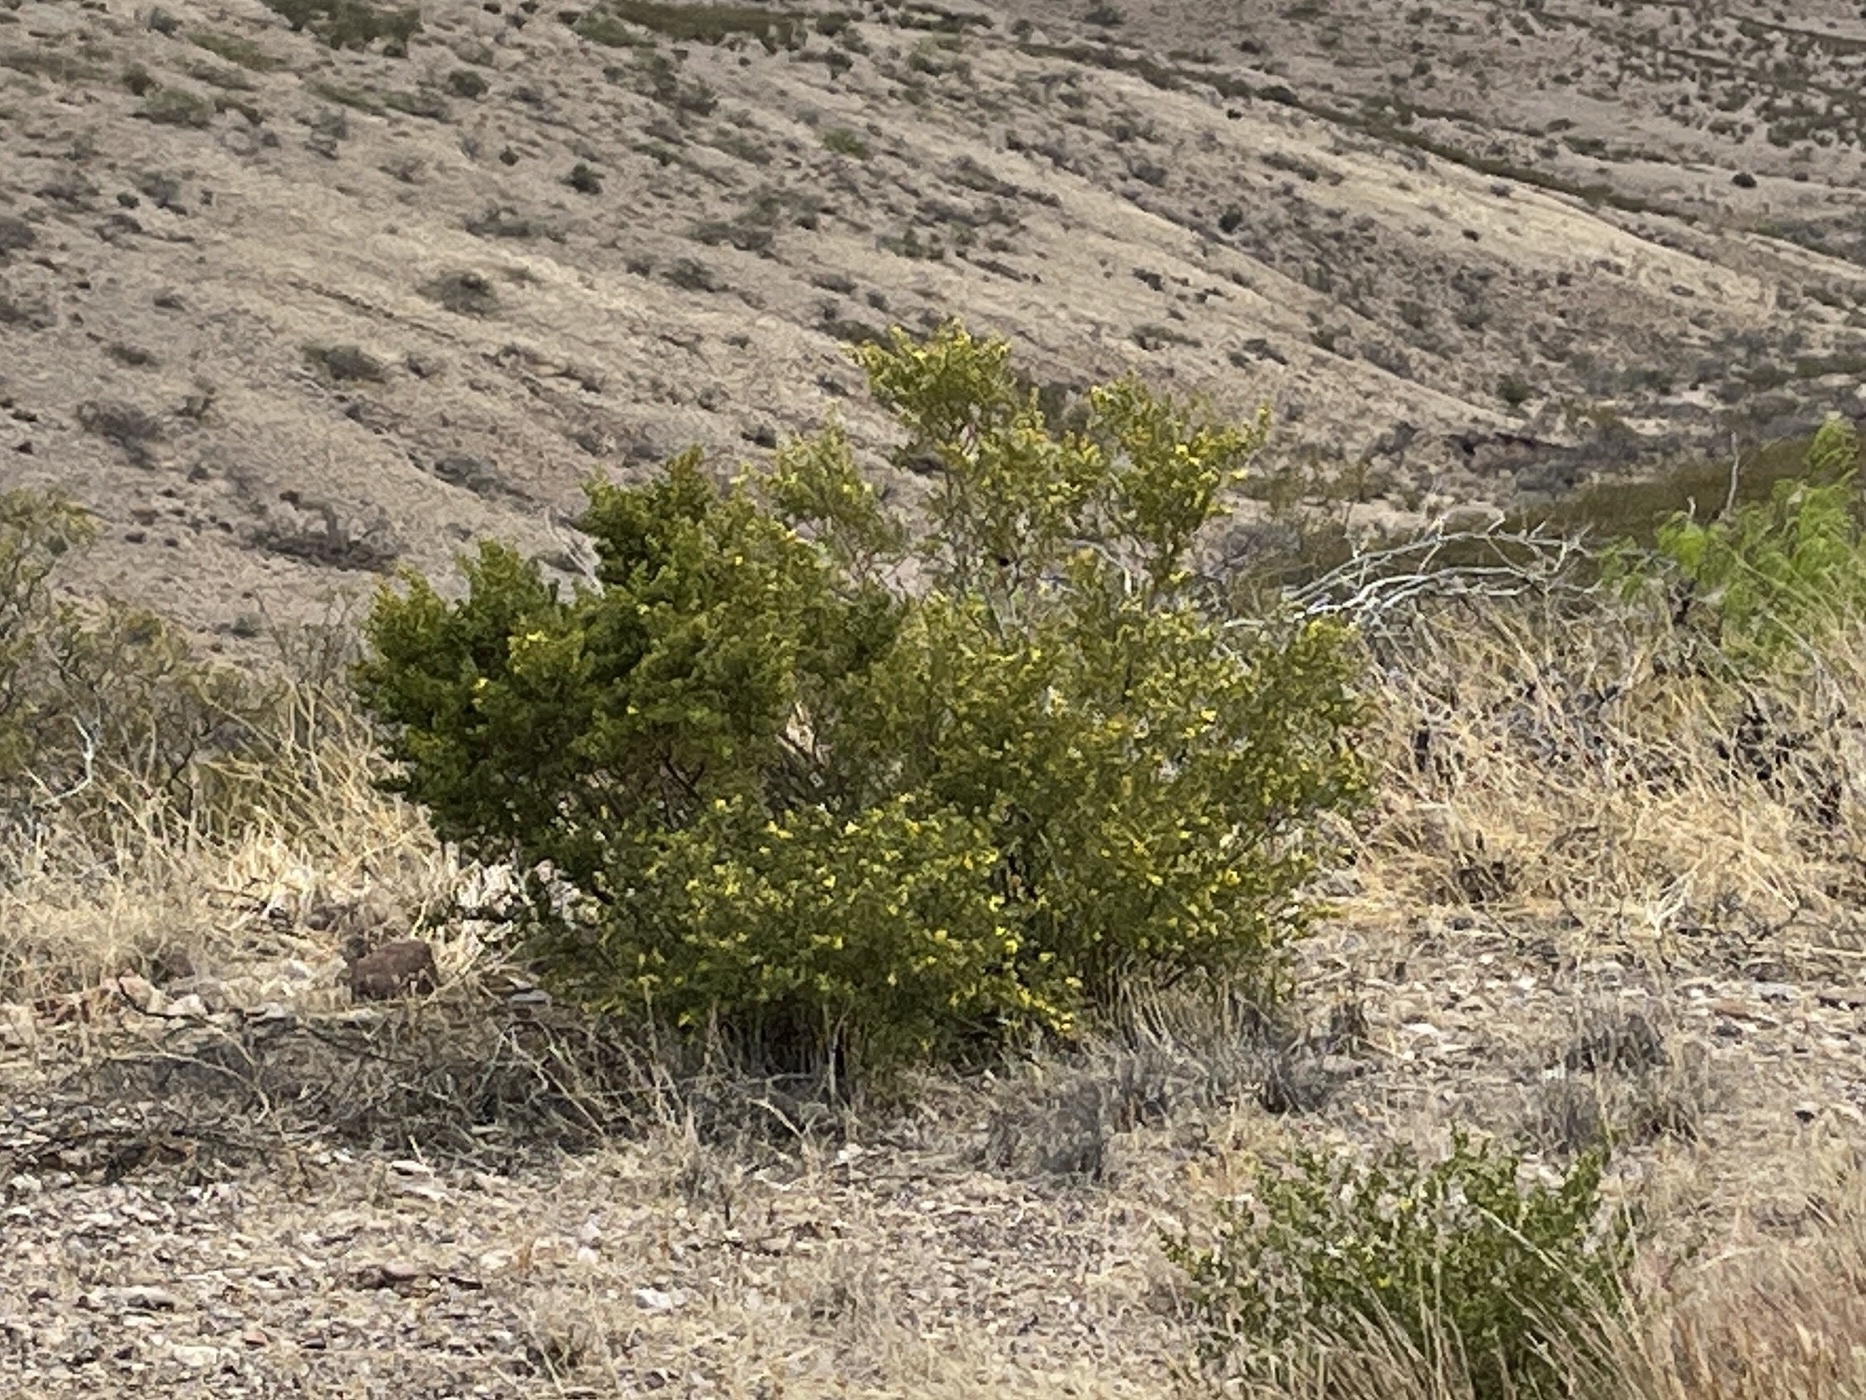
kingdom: Plantae
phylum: Tracheophyta
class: Magnoliopsida
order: Zygophyllales
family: Zygophyllaceae
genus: Larrea
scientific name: Larrea tridentata
